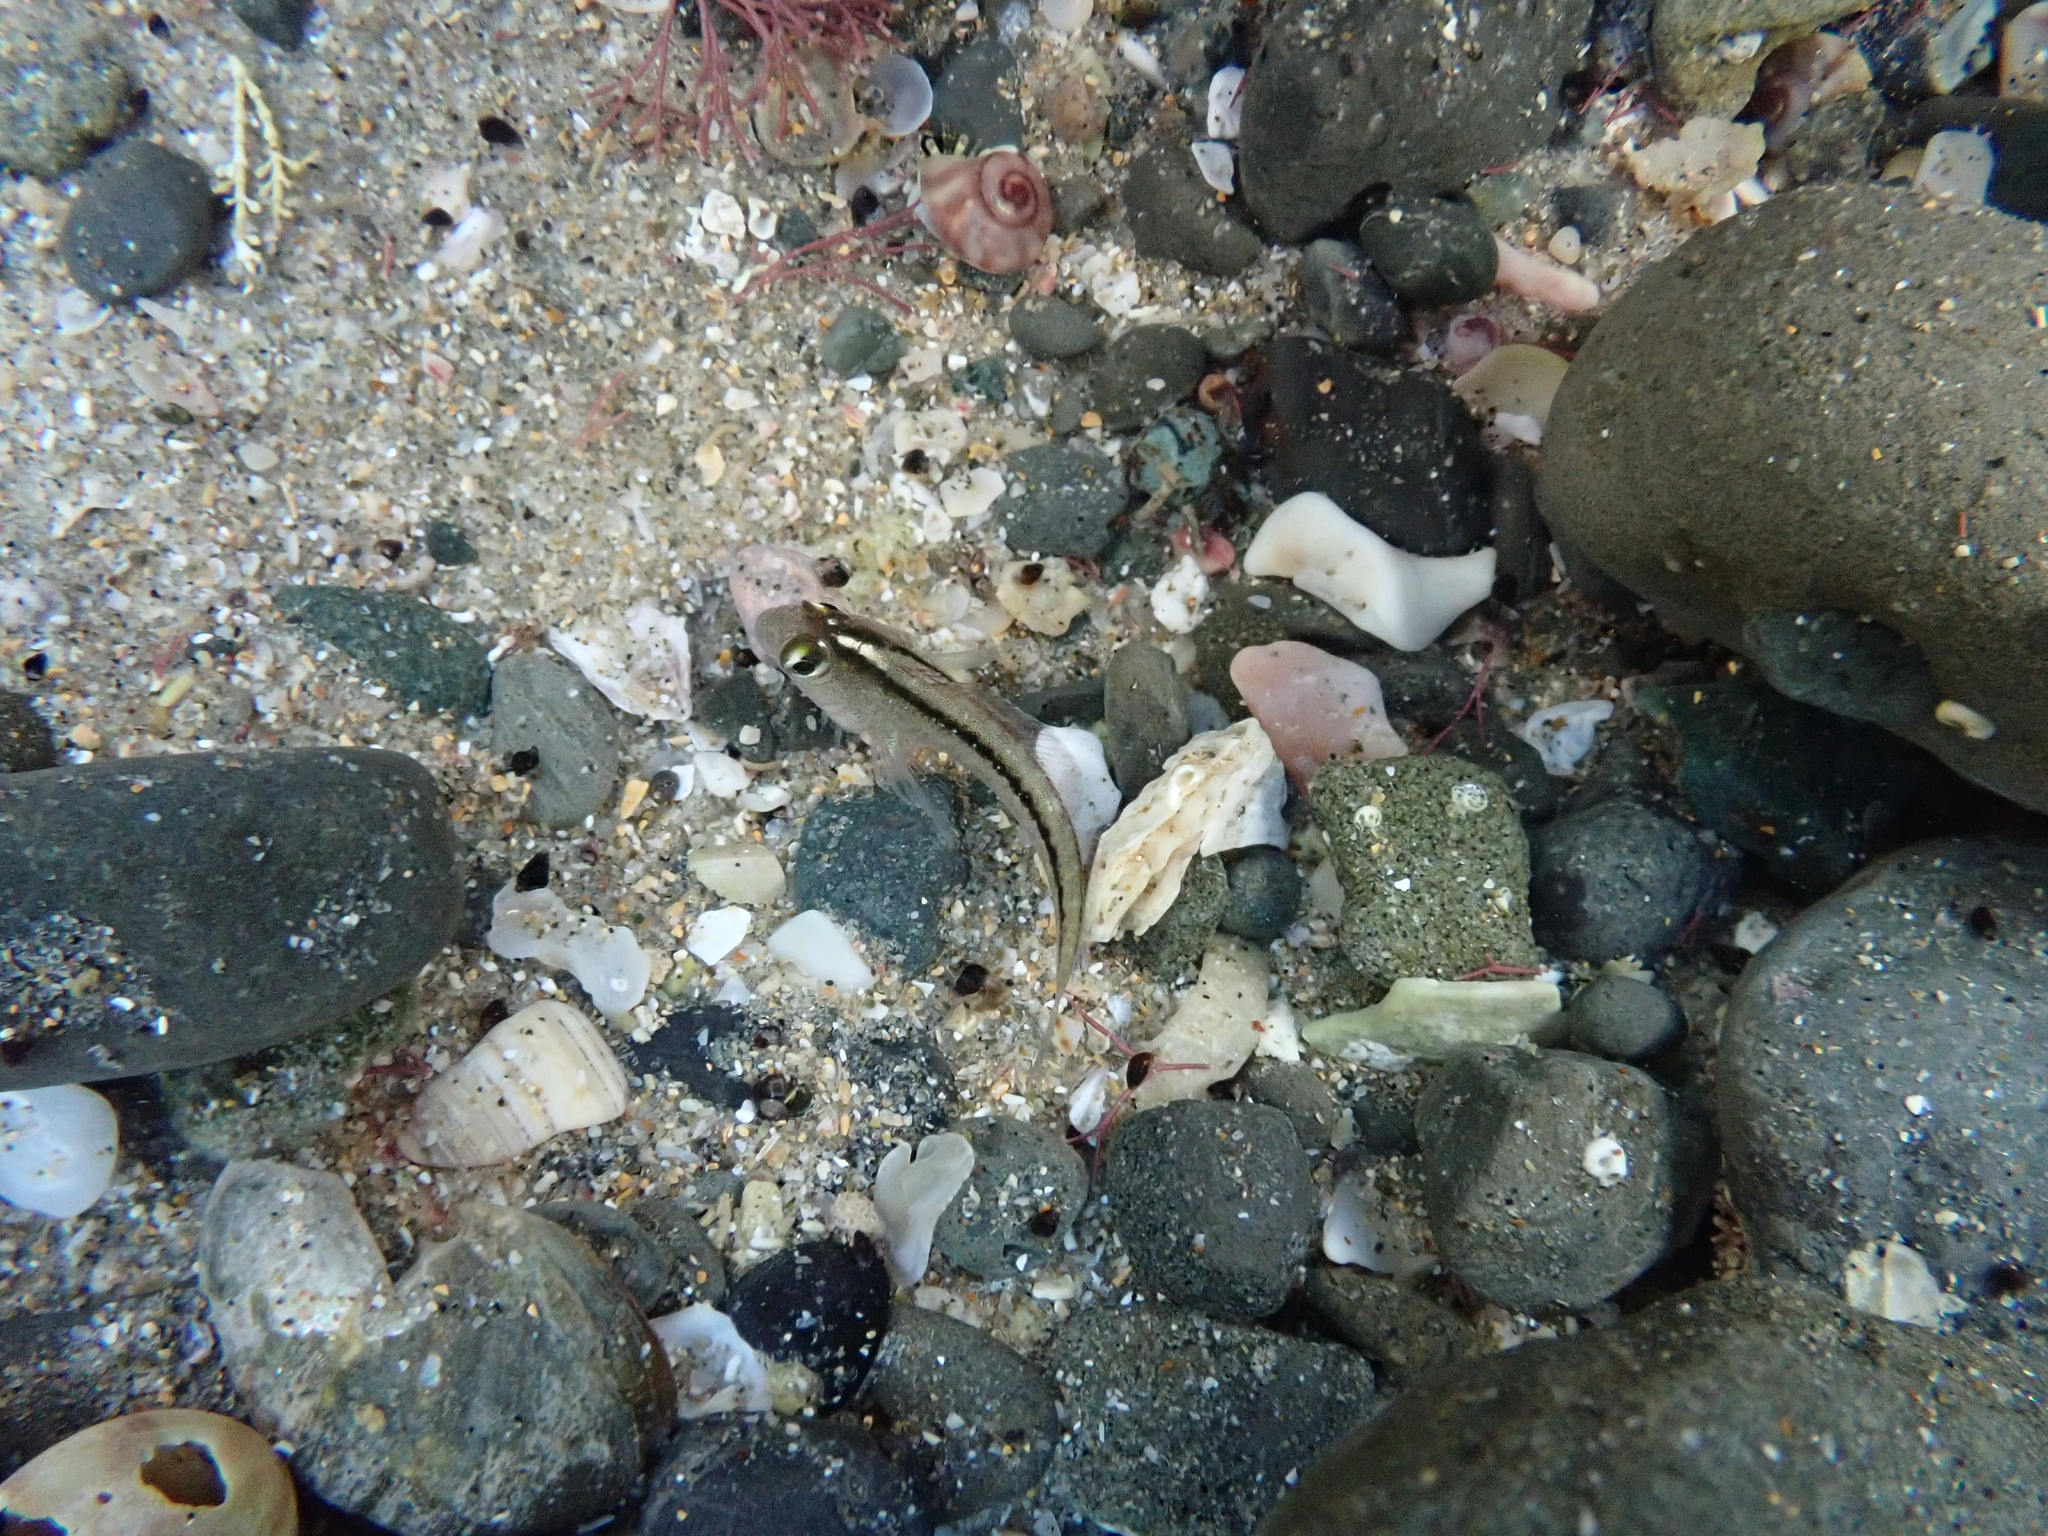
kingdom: Animalia
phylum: Chordata
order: Perciformes
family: Tripterygiidae
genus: Forsterygion
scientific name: Forsterygion lapillum
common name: Common triplefin
